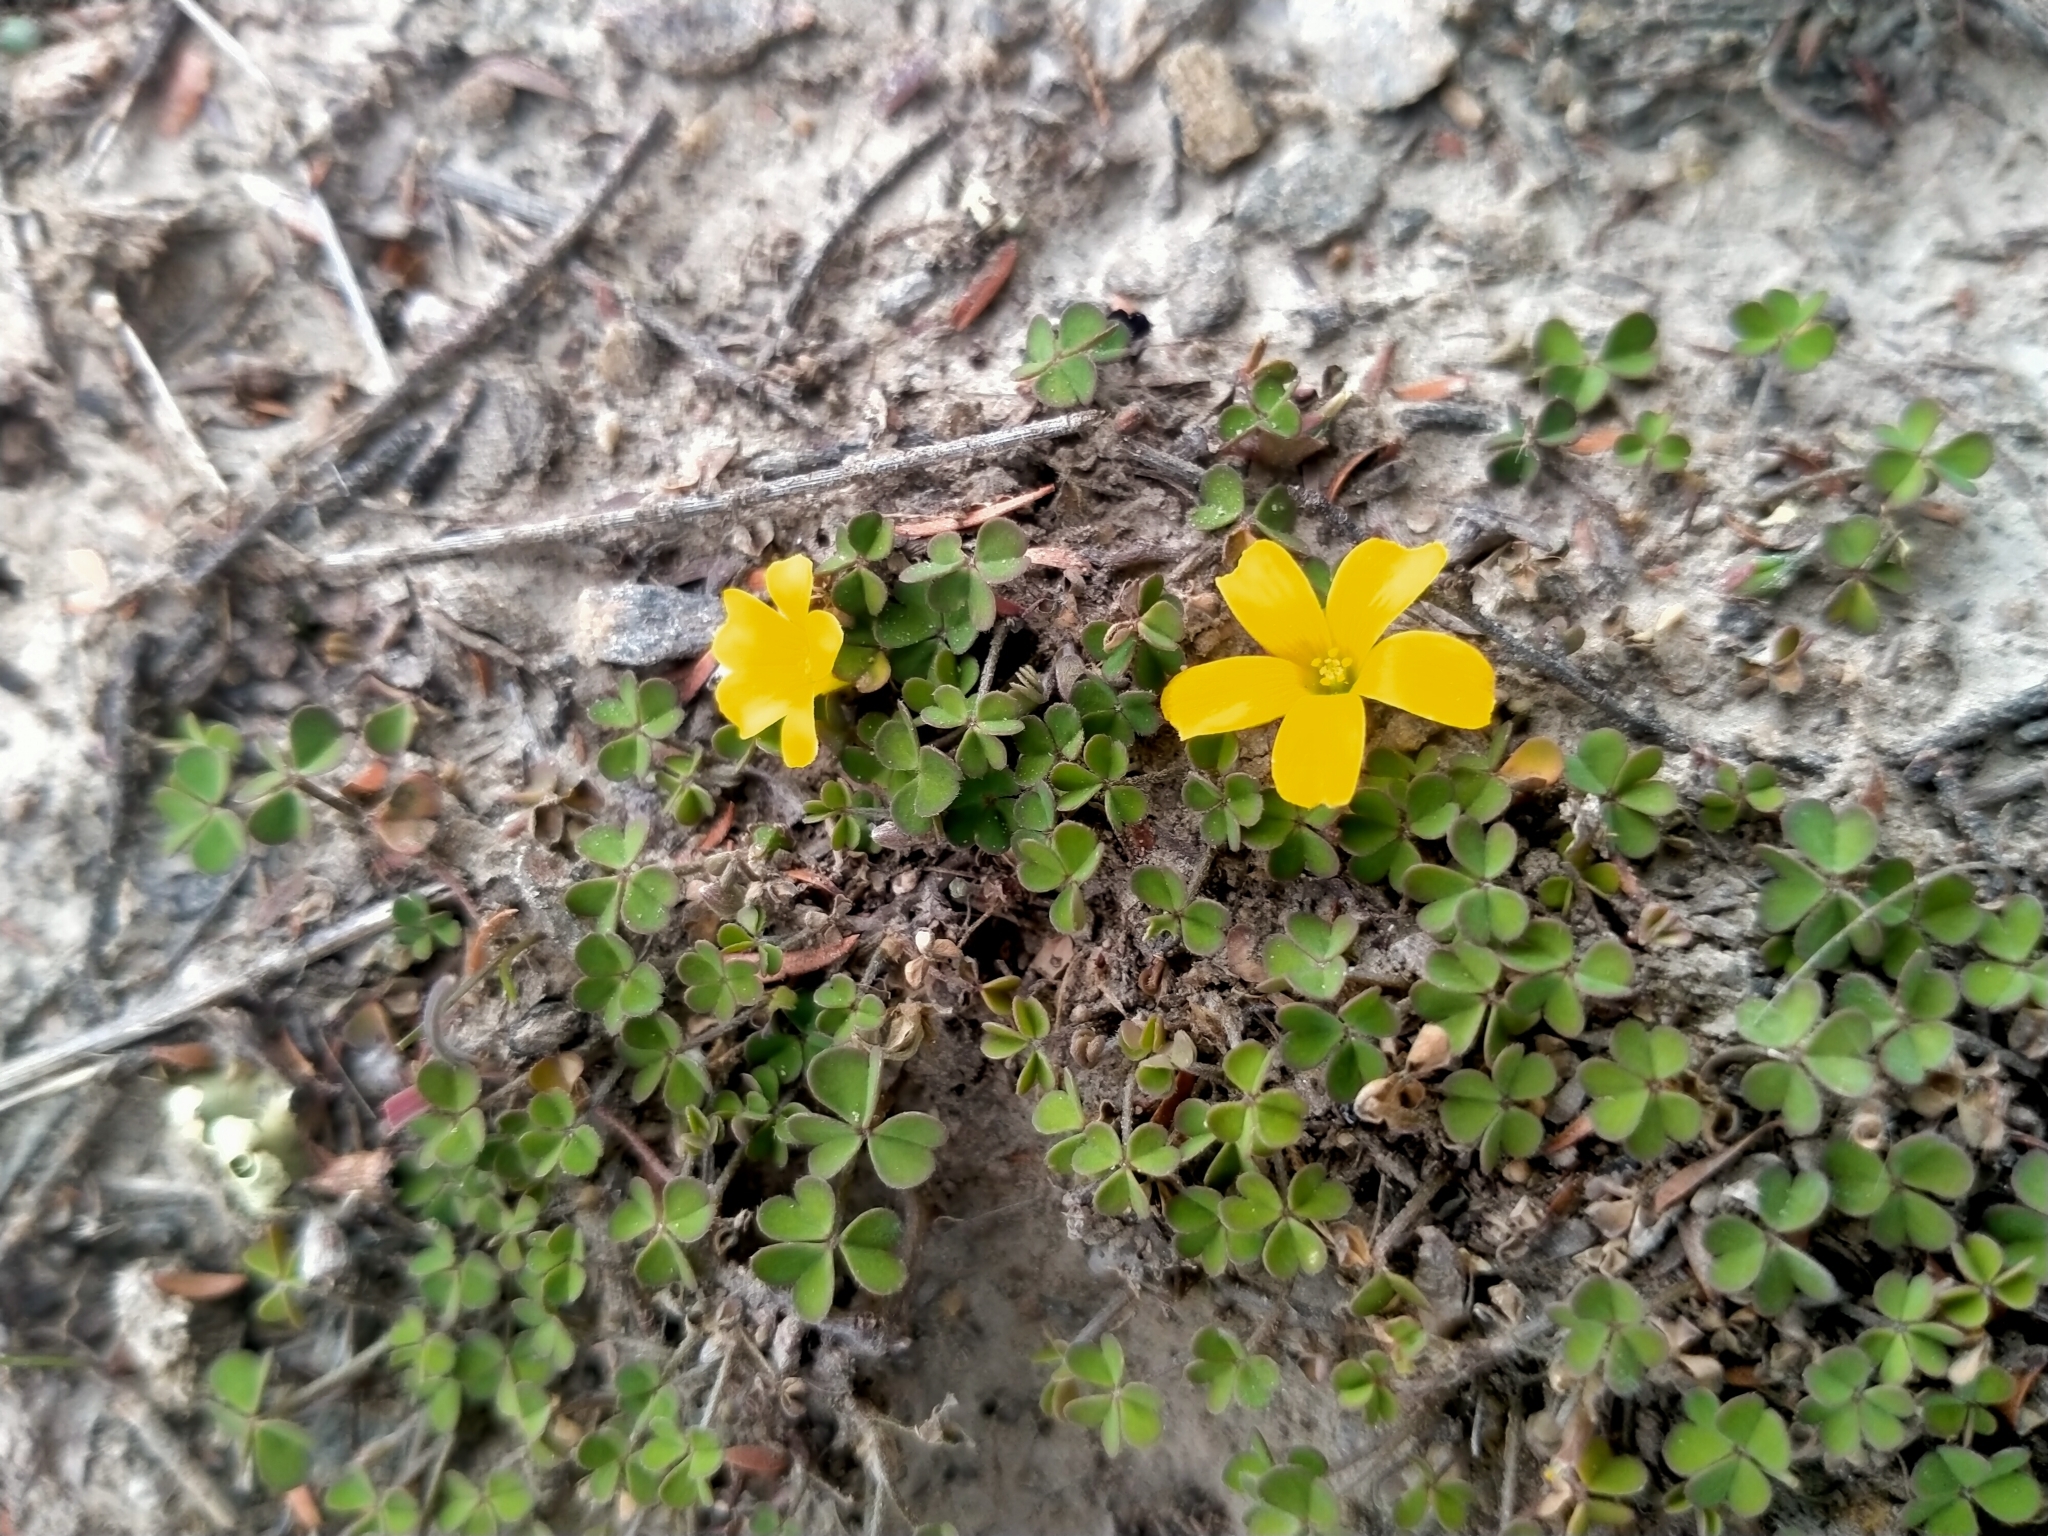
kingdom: Plantae
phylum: Tracheophyta
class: Magnoliopsida
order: Oxalidales
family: Oxalidaceae
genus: Oxalis
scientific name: Oxalis exilis
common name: Least yellow-sorrel
